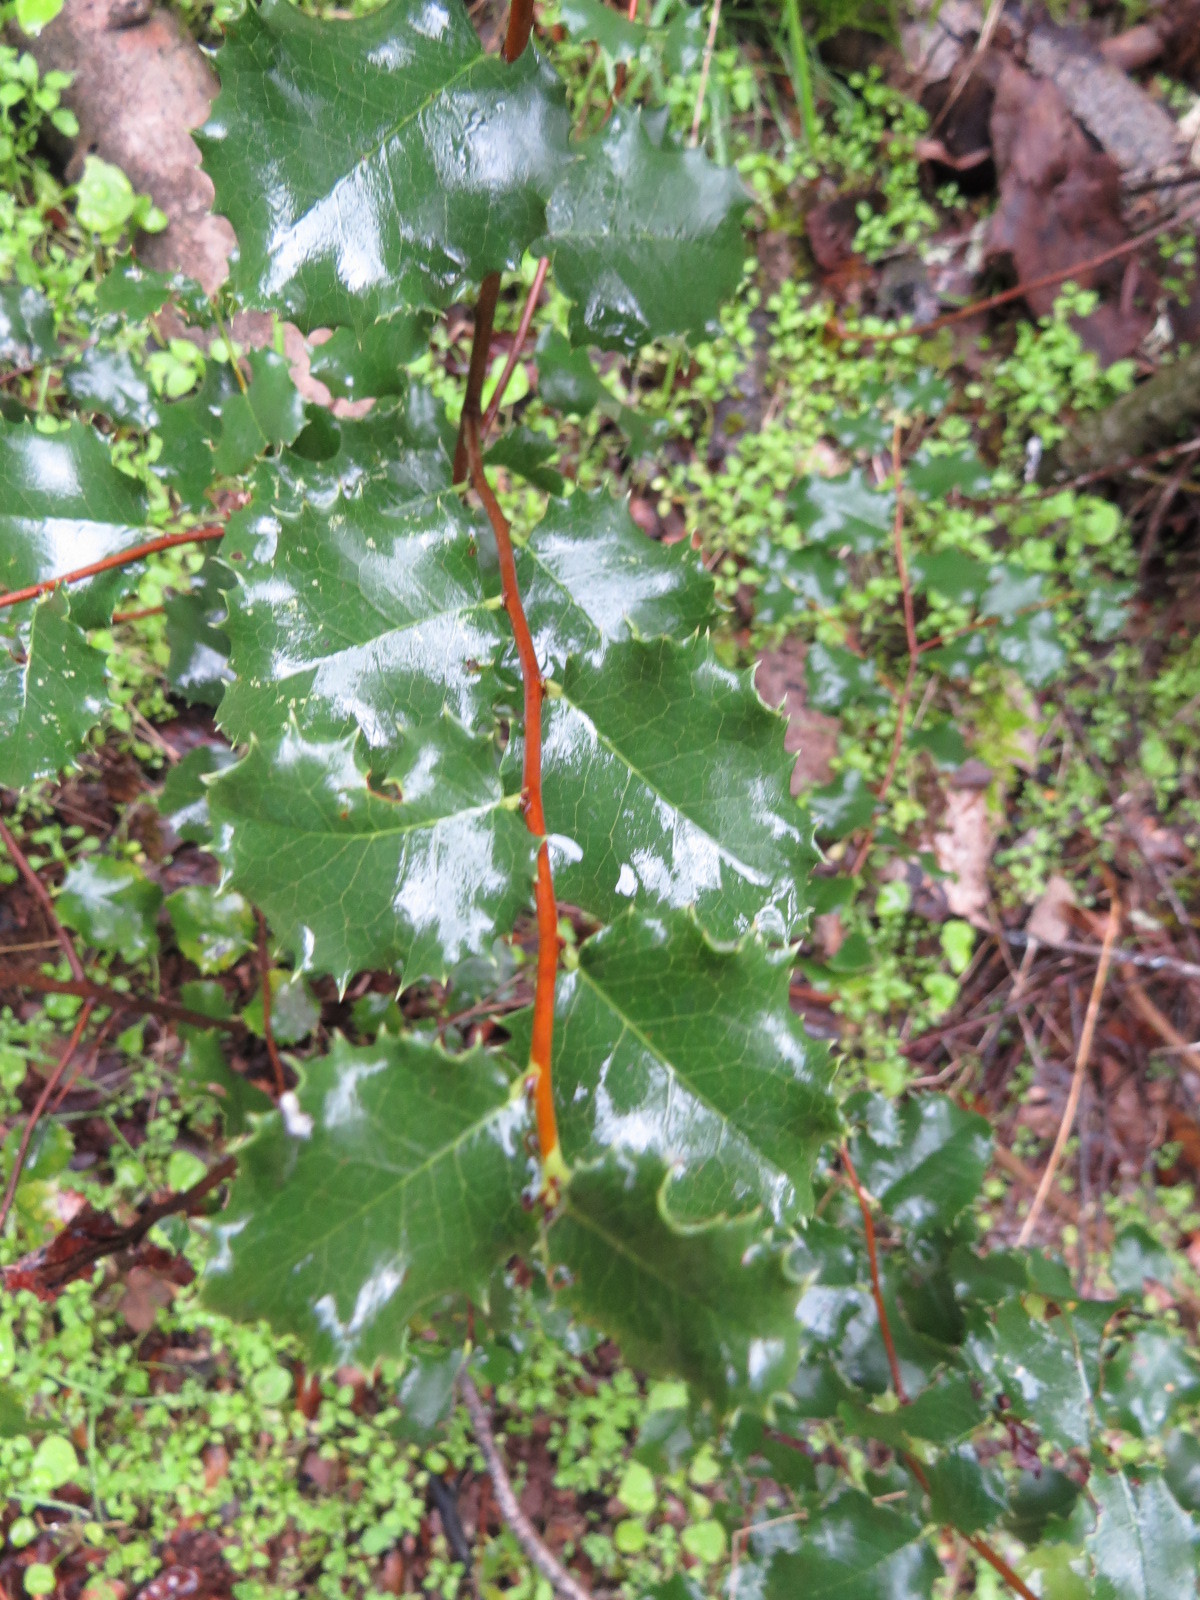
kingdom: Plantae
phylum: Tracheophyta
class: Magnoliopsida
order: Rosales
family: Rosaceae
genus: Prunus
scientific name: Prunus ilicifolia
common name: Hollyleaf cherry
